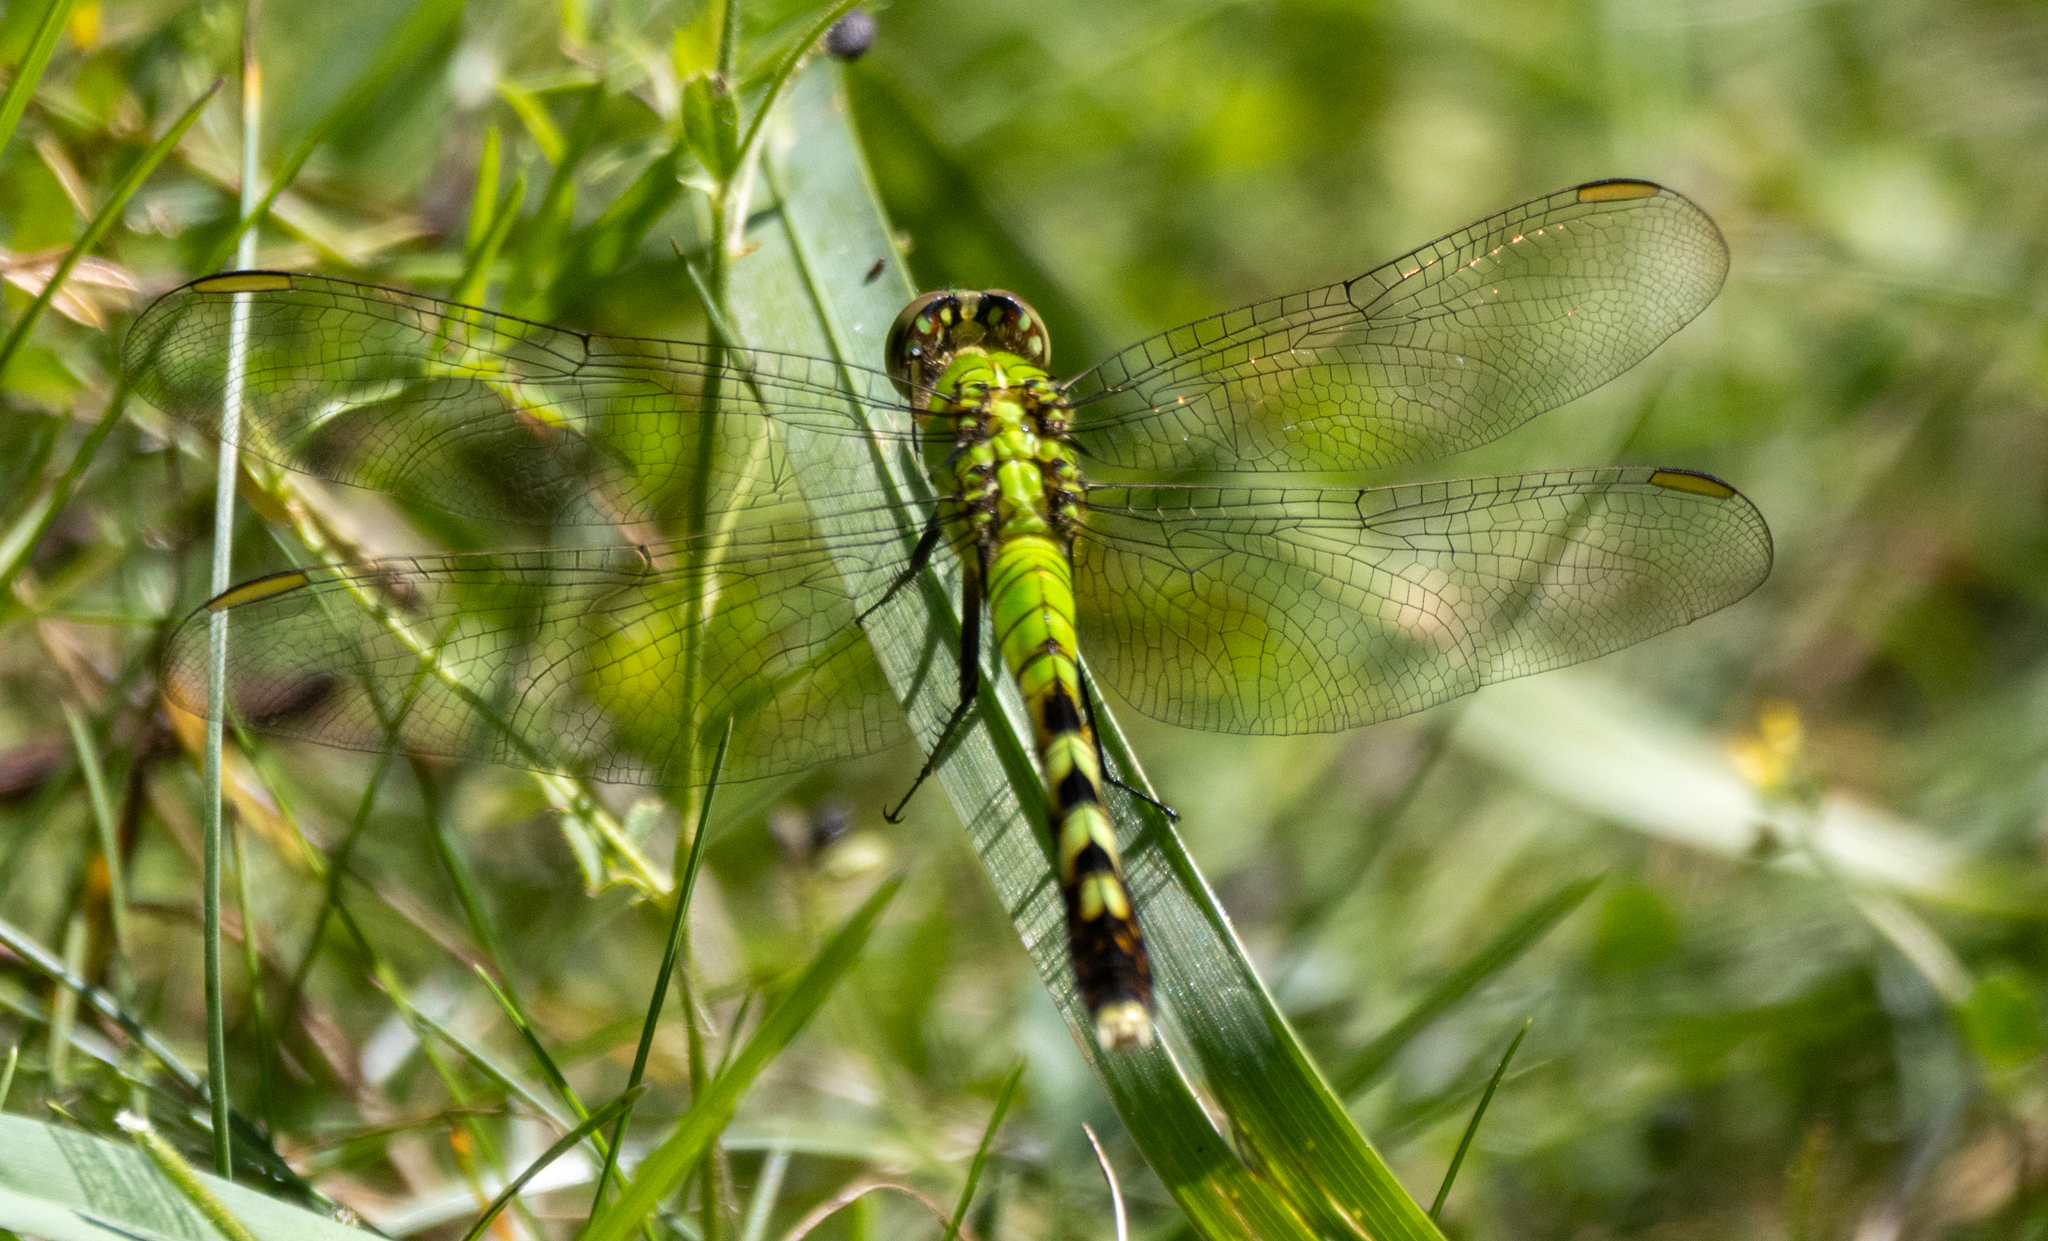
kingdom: Animalia
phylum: Arthropoda
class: Insecta
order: Odonata
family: Libellulidae
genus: Erythemis
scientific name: Erythemis simplicicollis
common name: Eastern pondhawk
